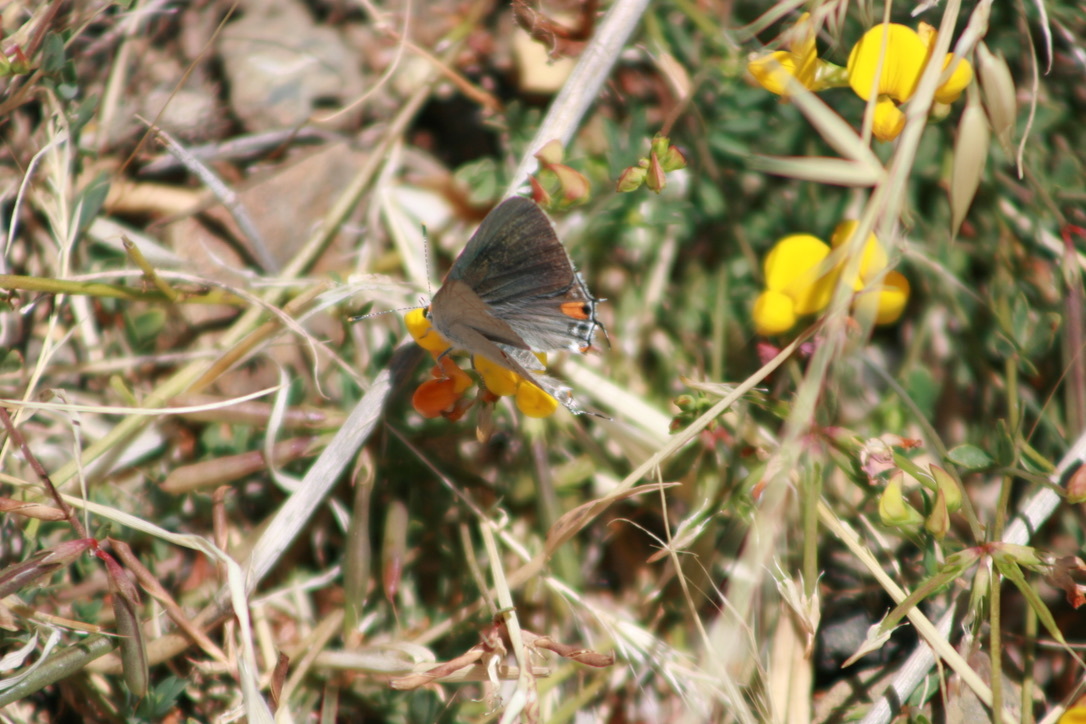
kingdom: Animalia
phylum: Arthropoda
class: Insecta
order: Lepidoptera
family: Lycaenidae
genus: Strymon
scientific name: Strymon melinus
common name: Gray hairstreak
